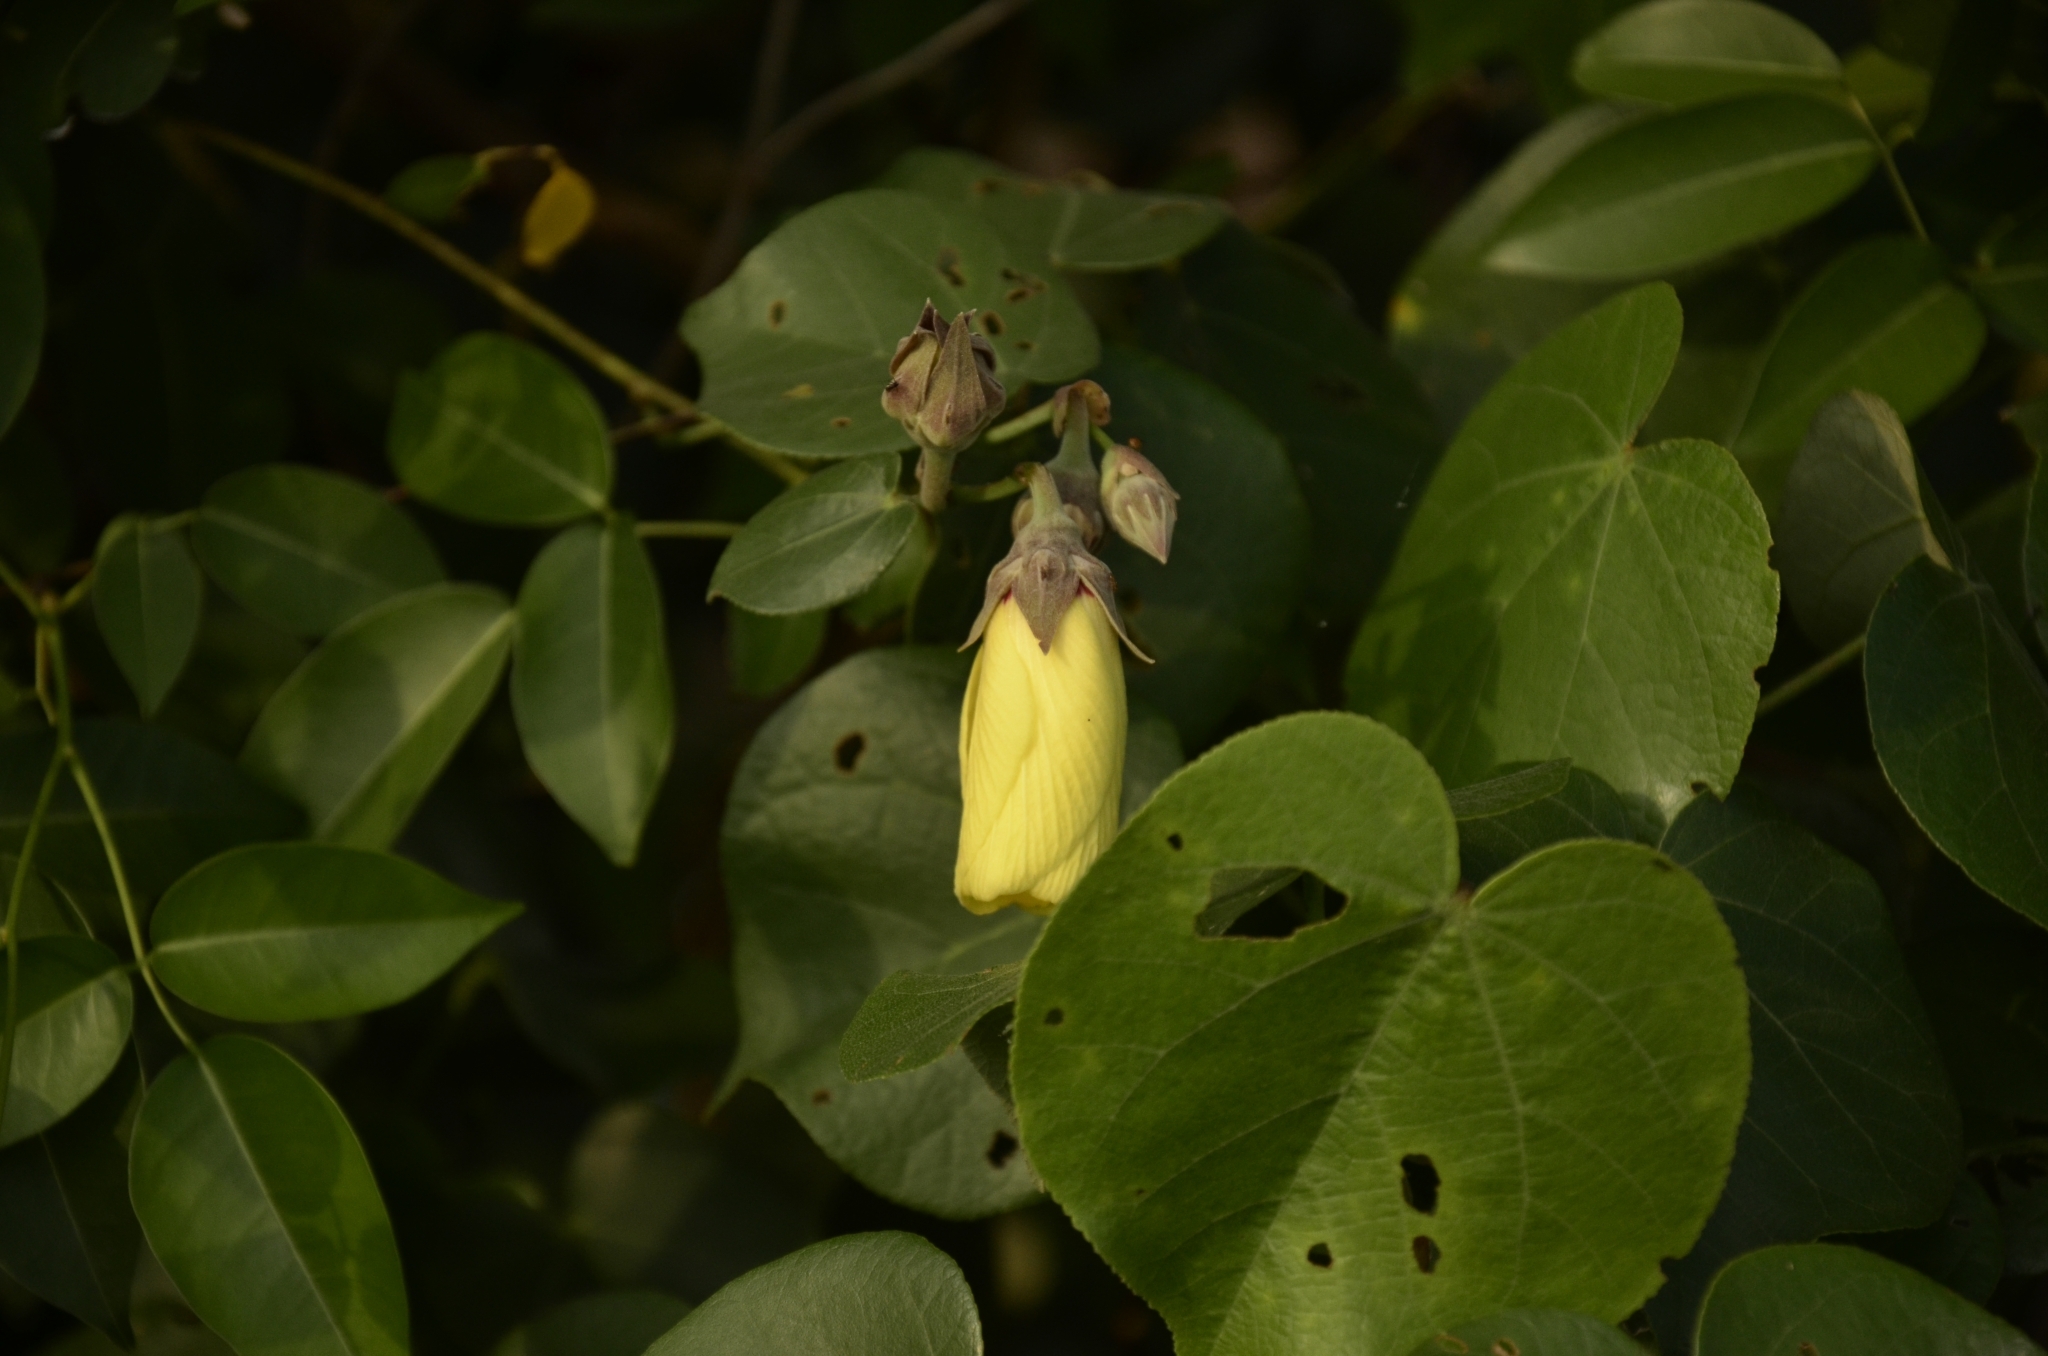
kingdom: Plantae
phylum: Tracheophyta
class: Magnoliopsida
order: Malvales
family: Malvaceae
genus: Talipariti
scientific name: Talipariti tiliaceum
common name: Sea hibiscus
